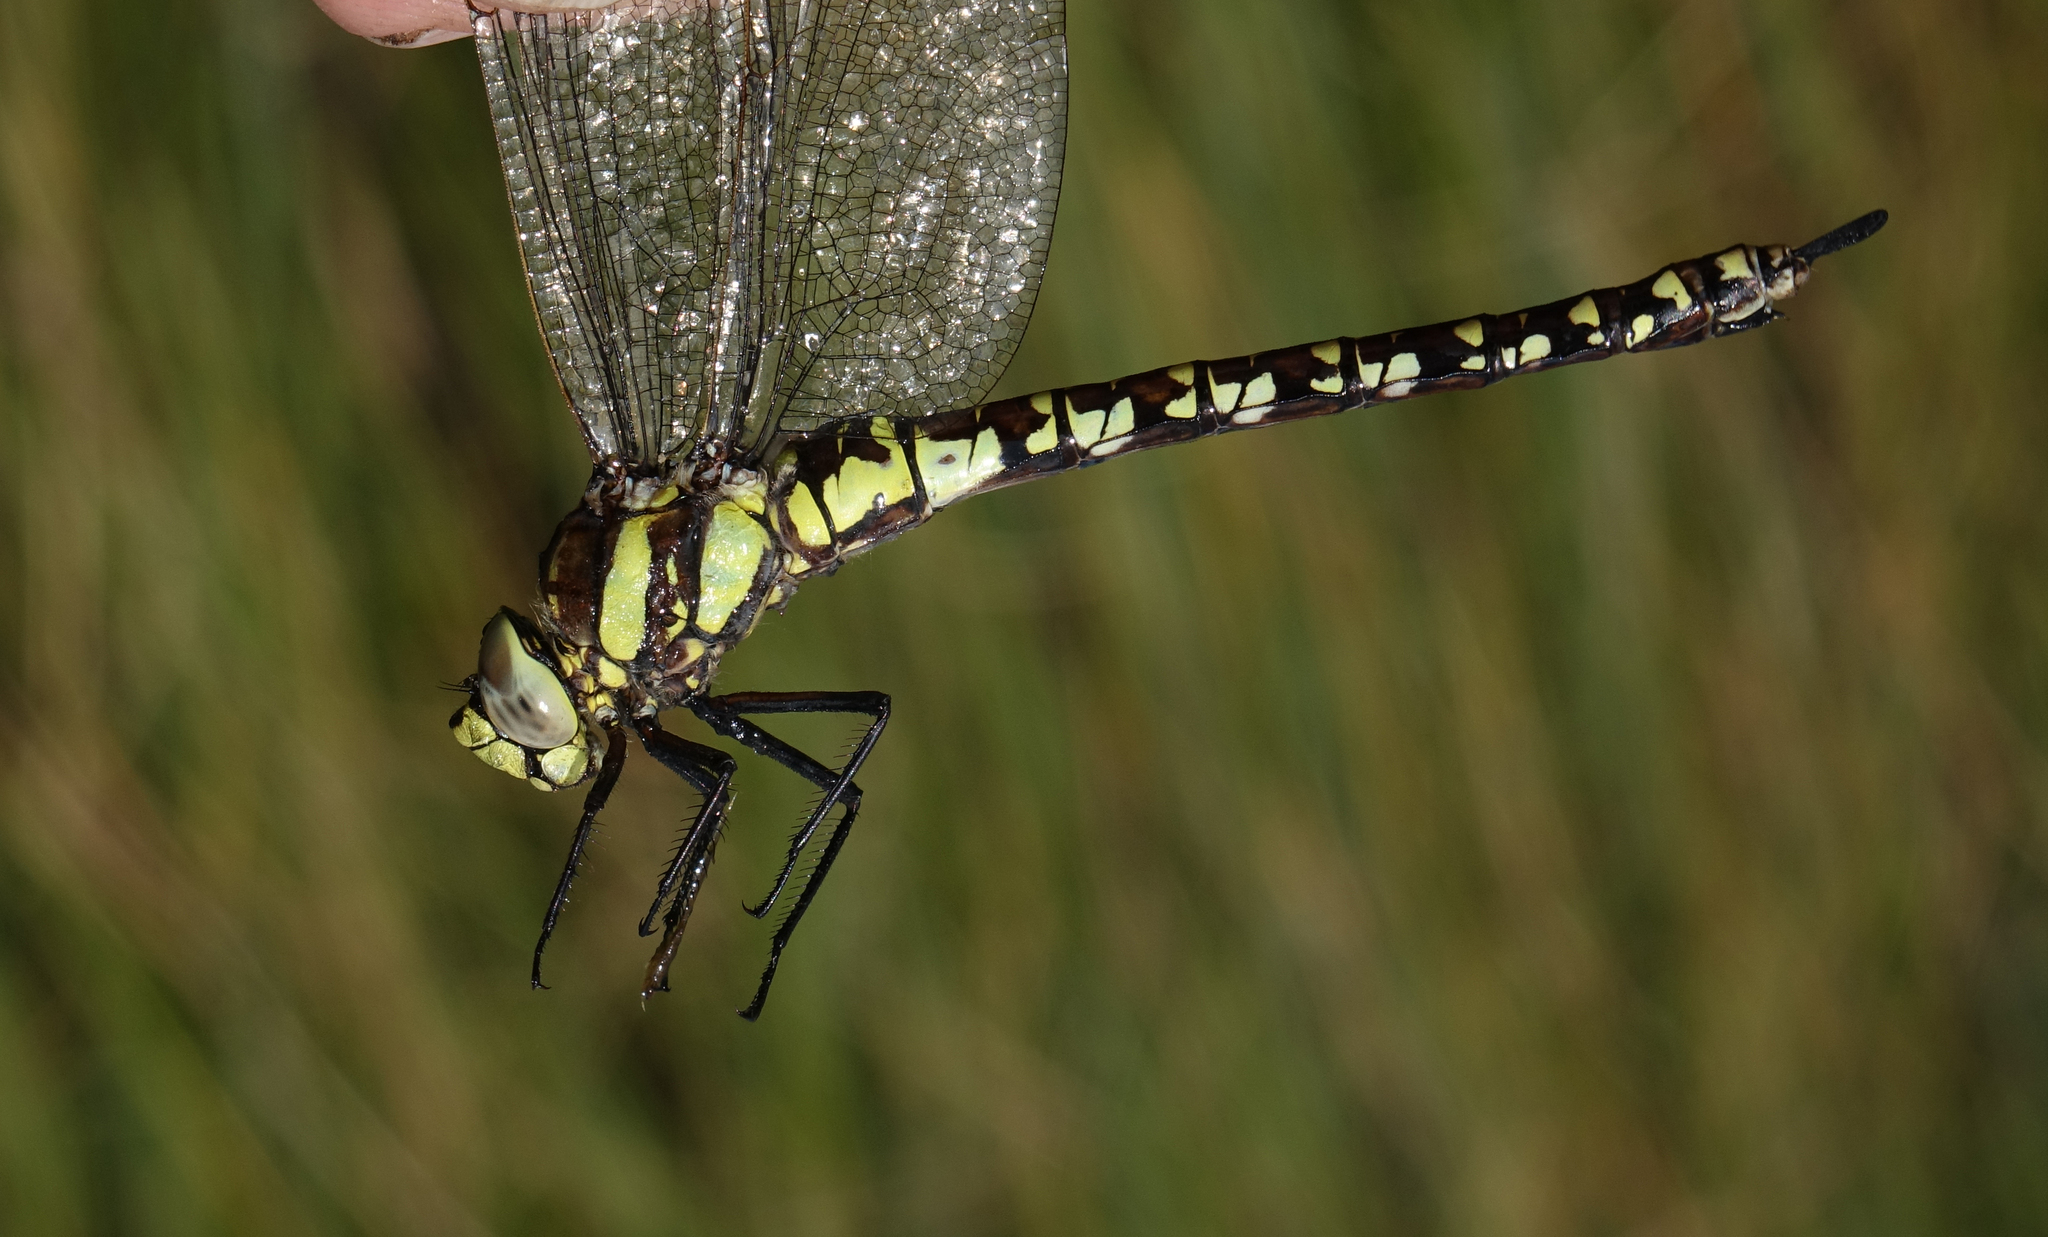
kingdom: Animalia
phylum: Arthropoda
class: Insecta
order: Odonata
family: Aeshnidae
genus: Aeshna
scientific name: Aeshna juncea
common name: Moorland hawker
